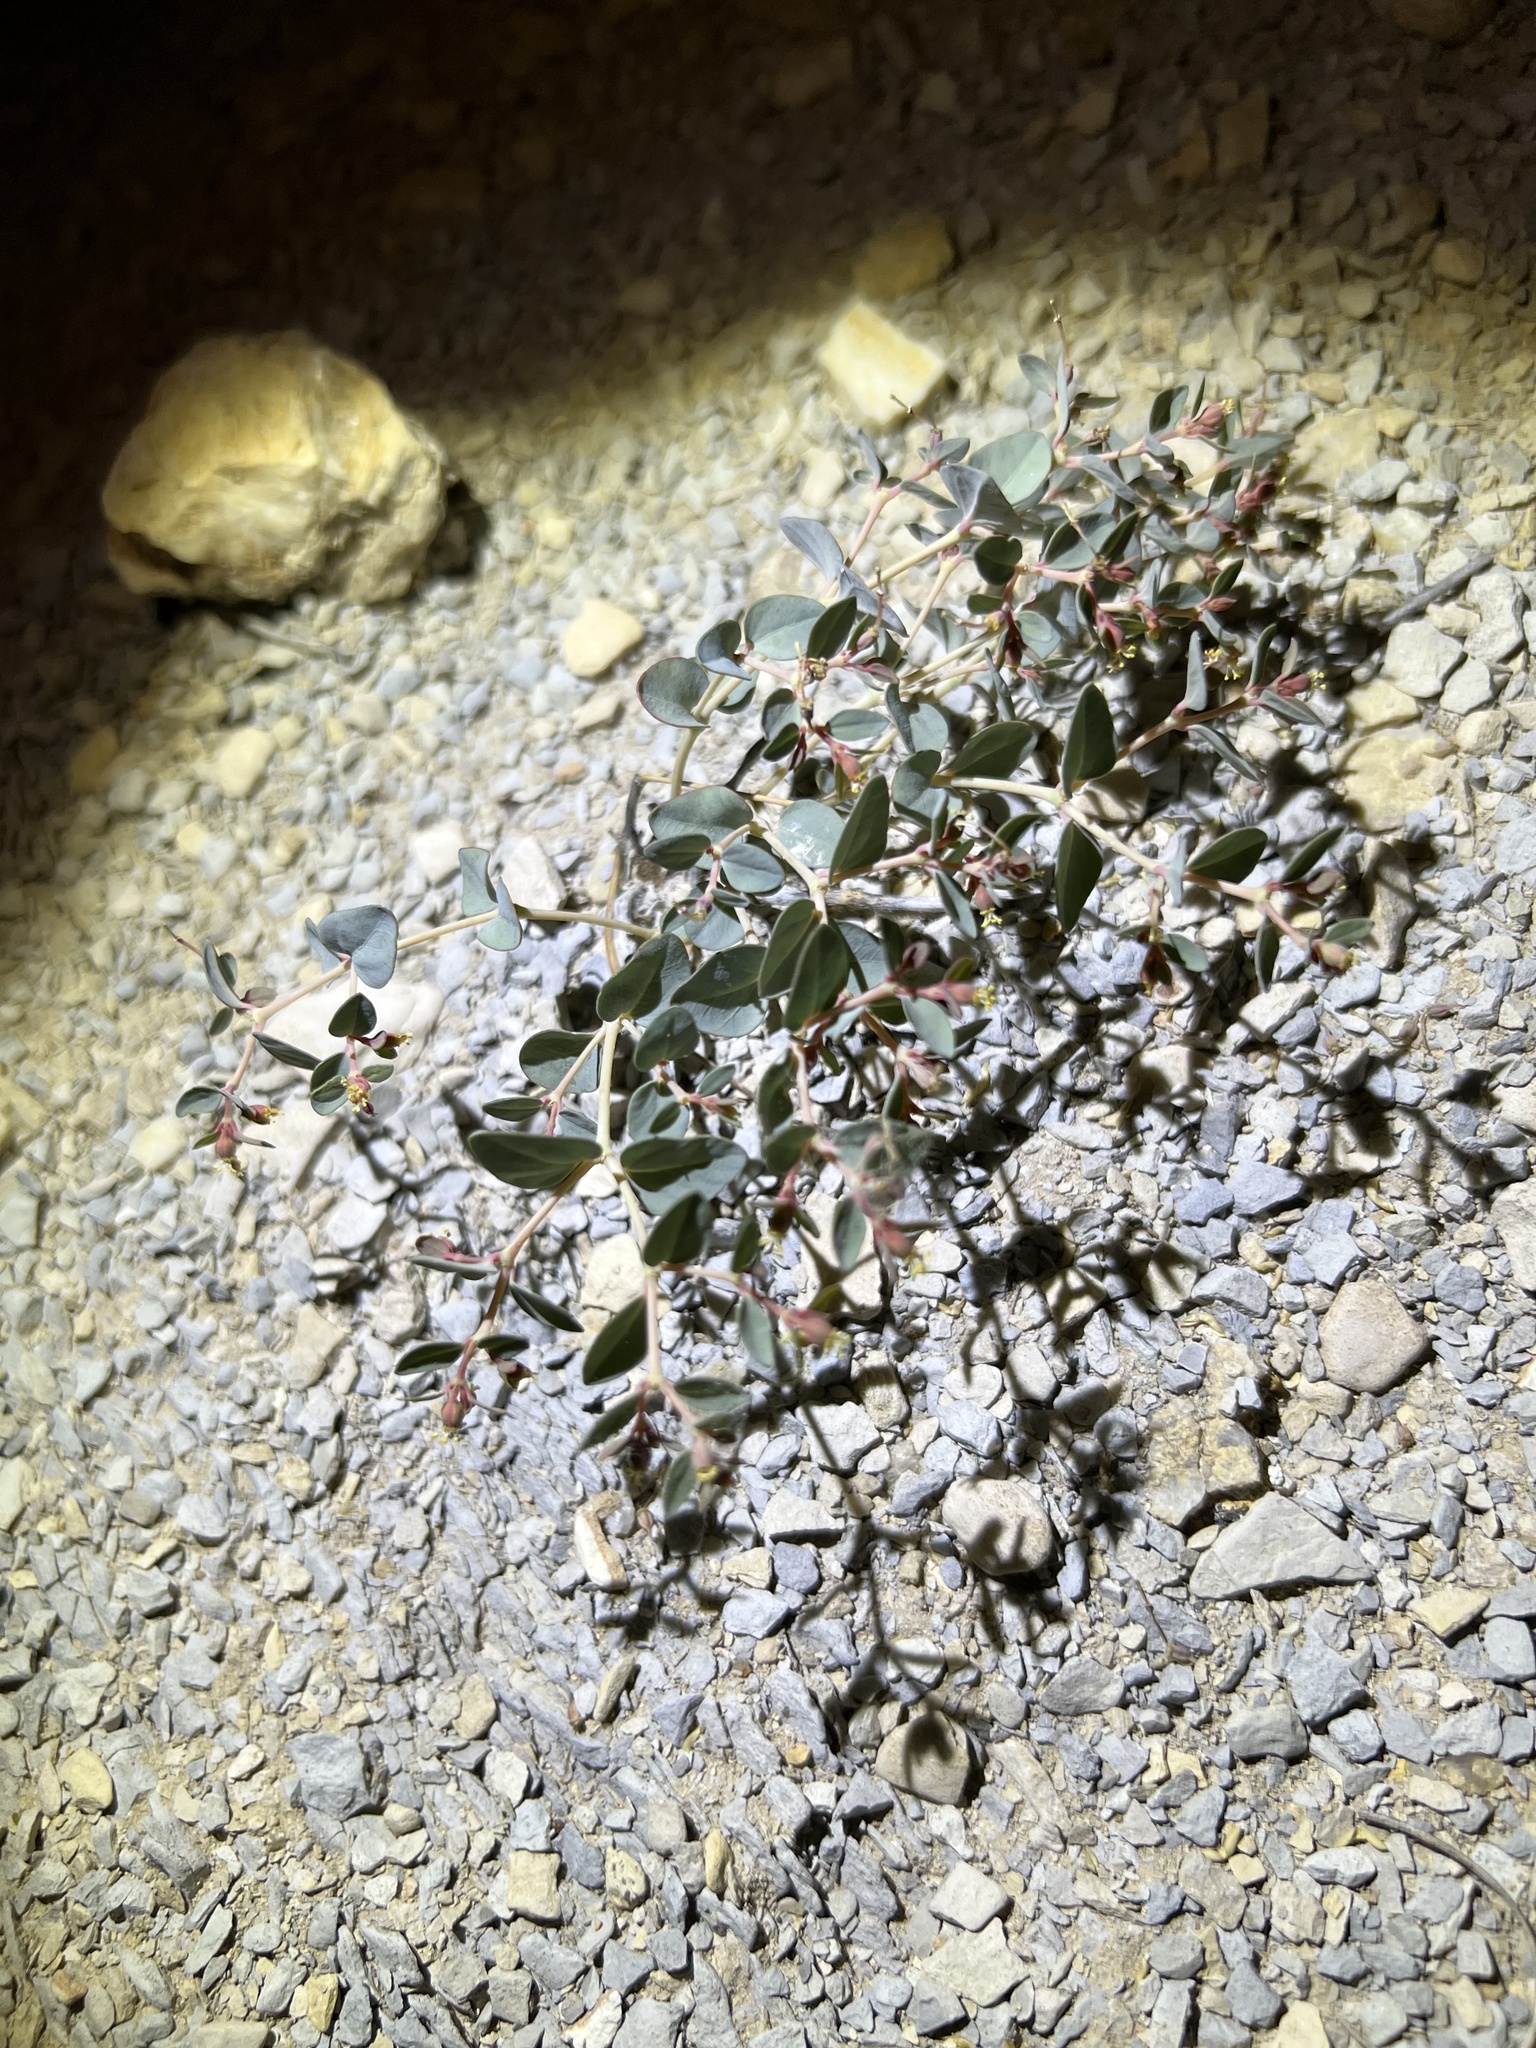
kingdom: Plantae
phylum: Tracheophyta
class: Magnoliopsida
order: Malpighiales
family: Euphorbiaceae
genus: Euphorbia
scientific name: Euphorbia perennans
